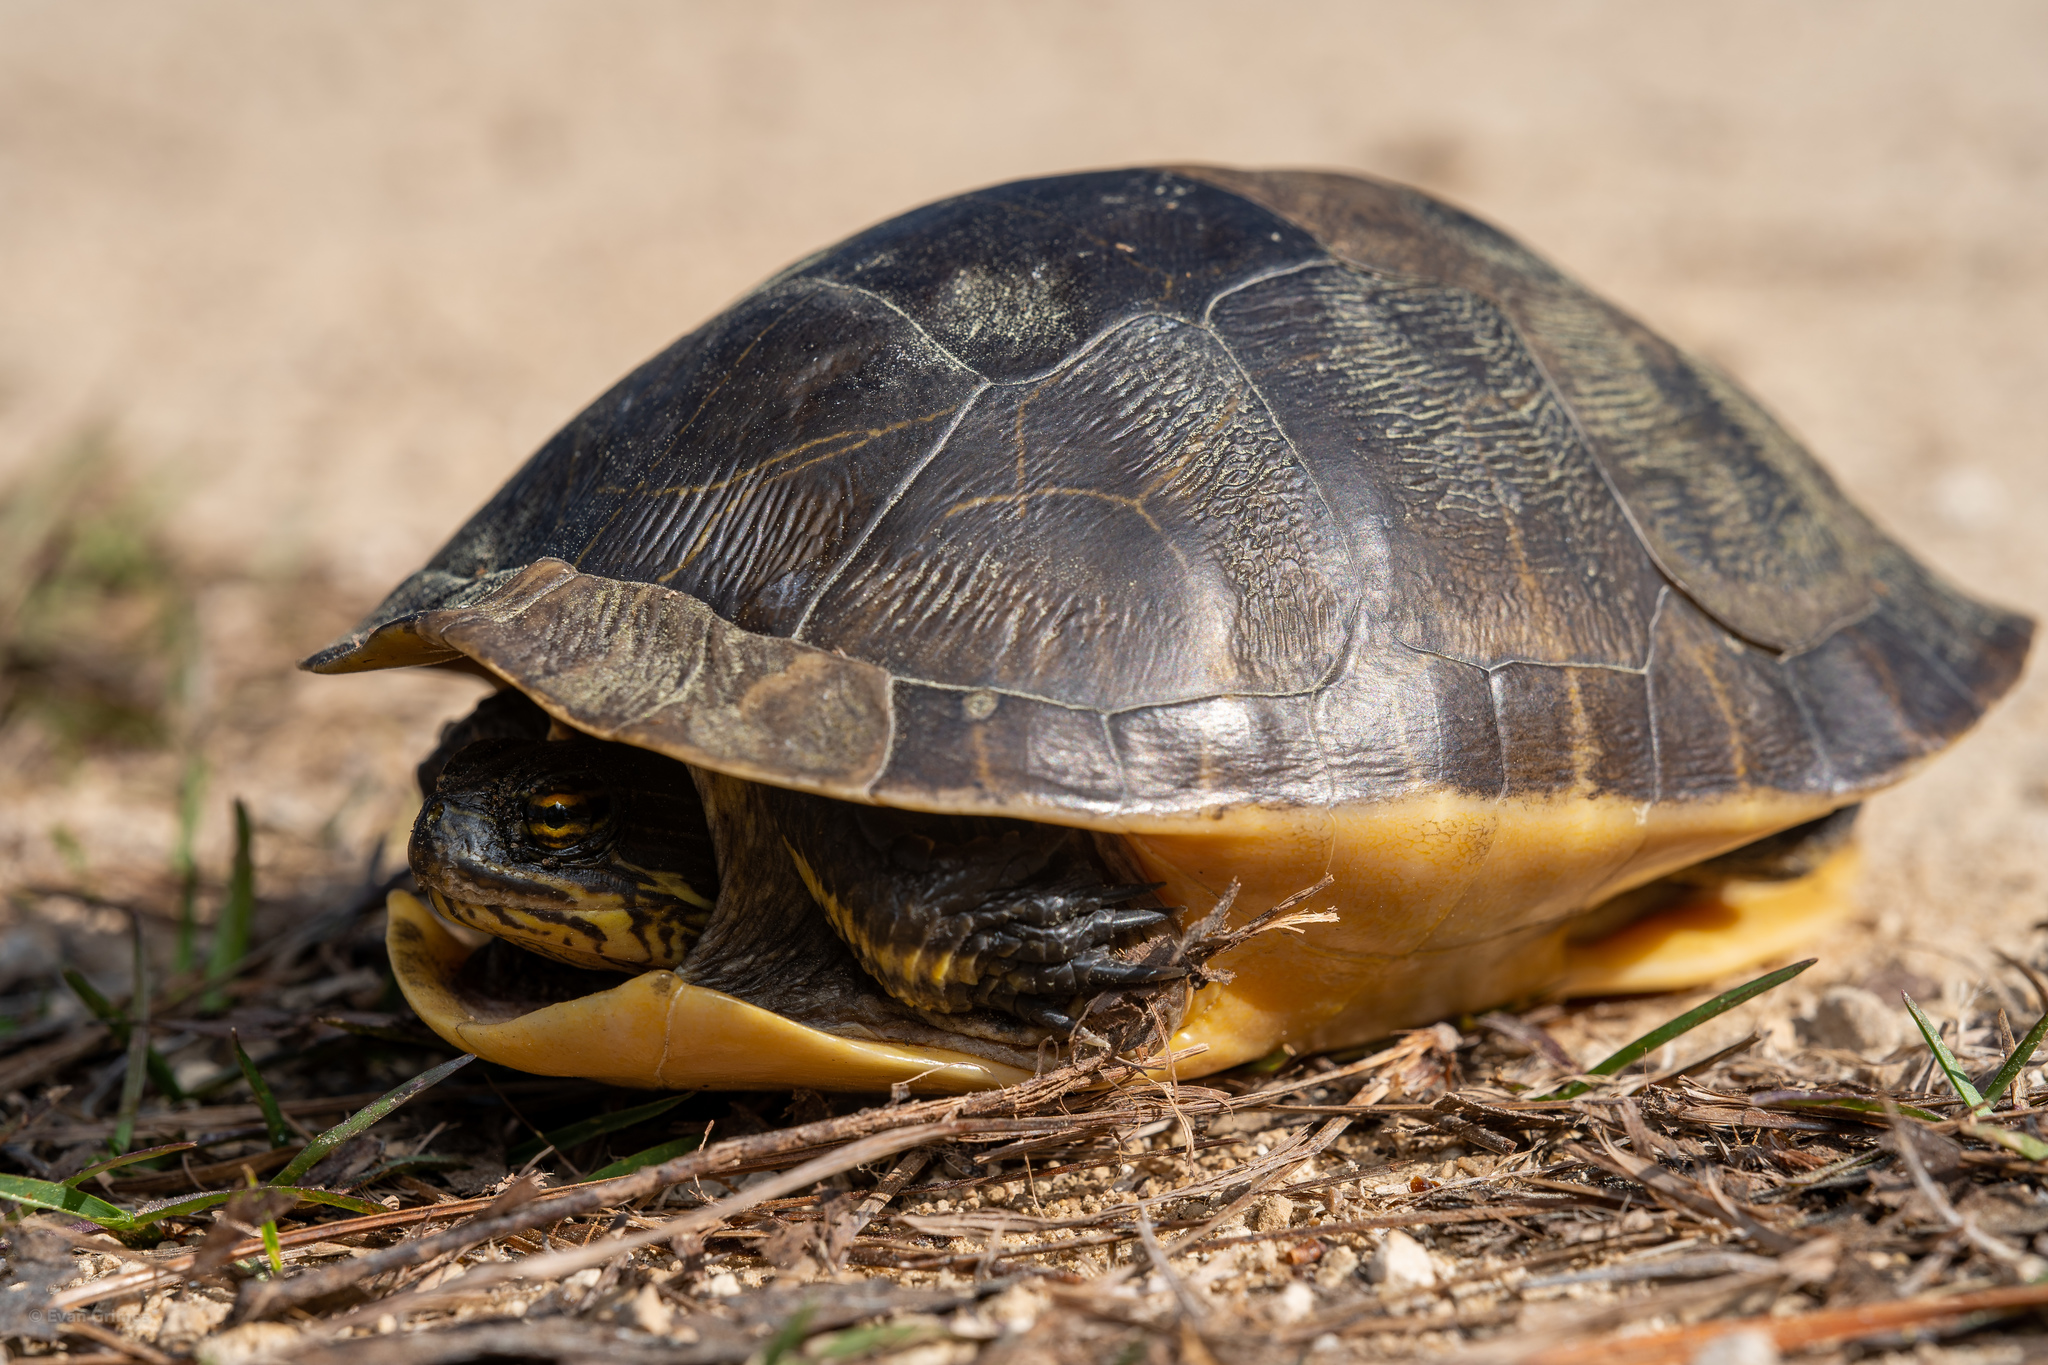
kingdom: Animalia
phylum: Chordata
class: Testudines
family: Emydidae
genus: Deirochelys
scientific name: Deirochelys reticularia
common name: Chicken turtle
